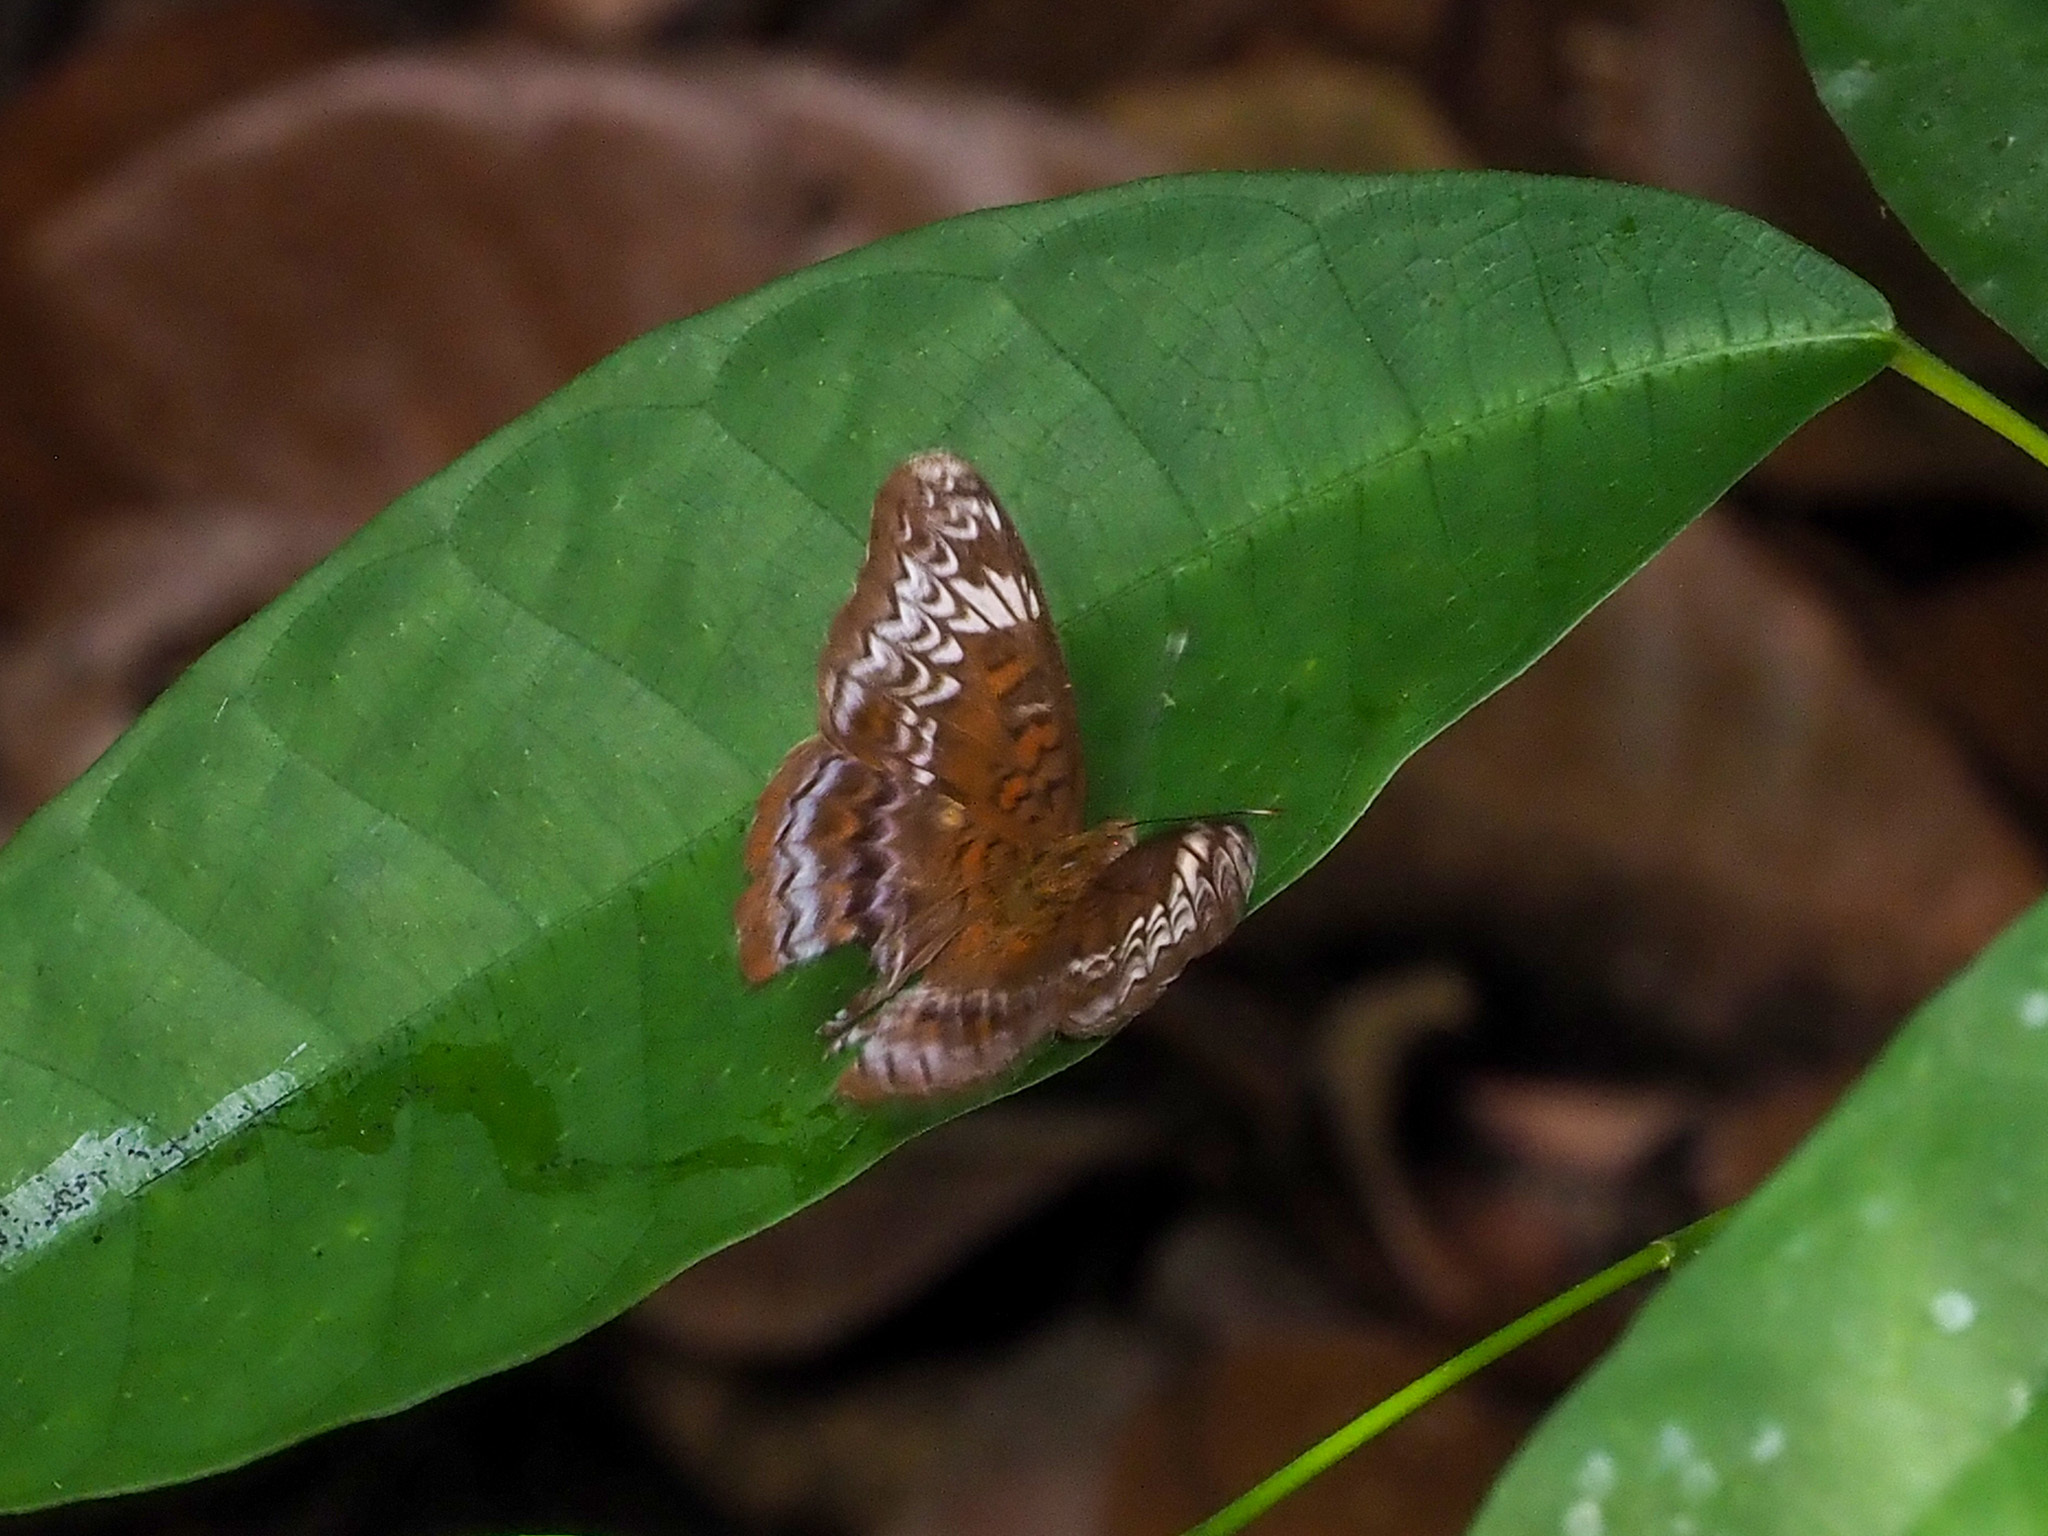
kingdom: Animalia
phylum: Arthropoda
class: Insecta
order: Lepidoptera
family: Nymphalidae
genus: Lebadea
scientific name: Lebadea martha
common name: Knight
